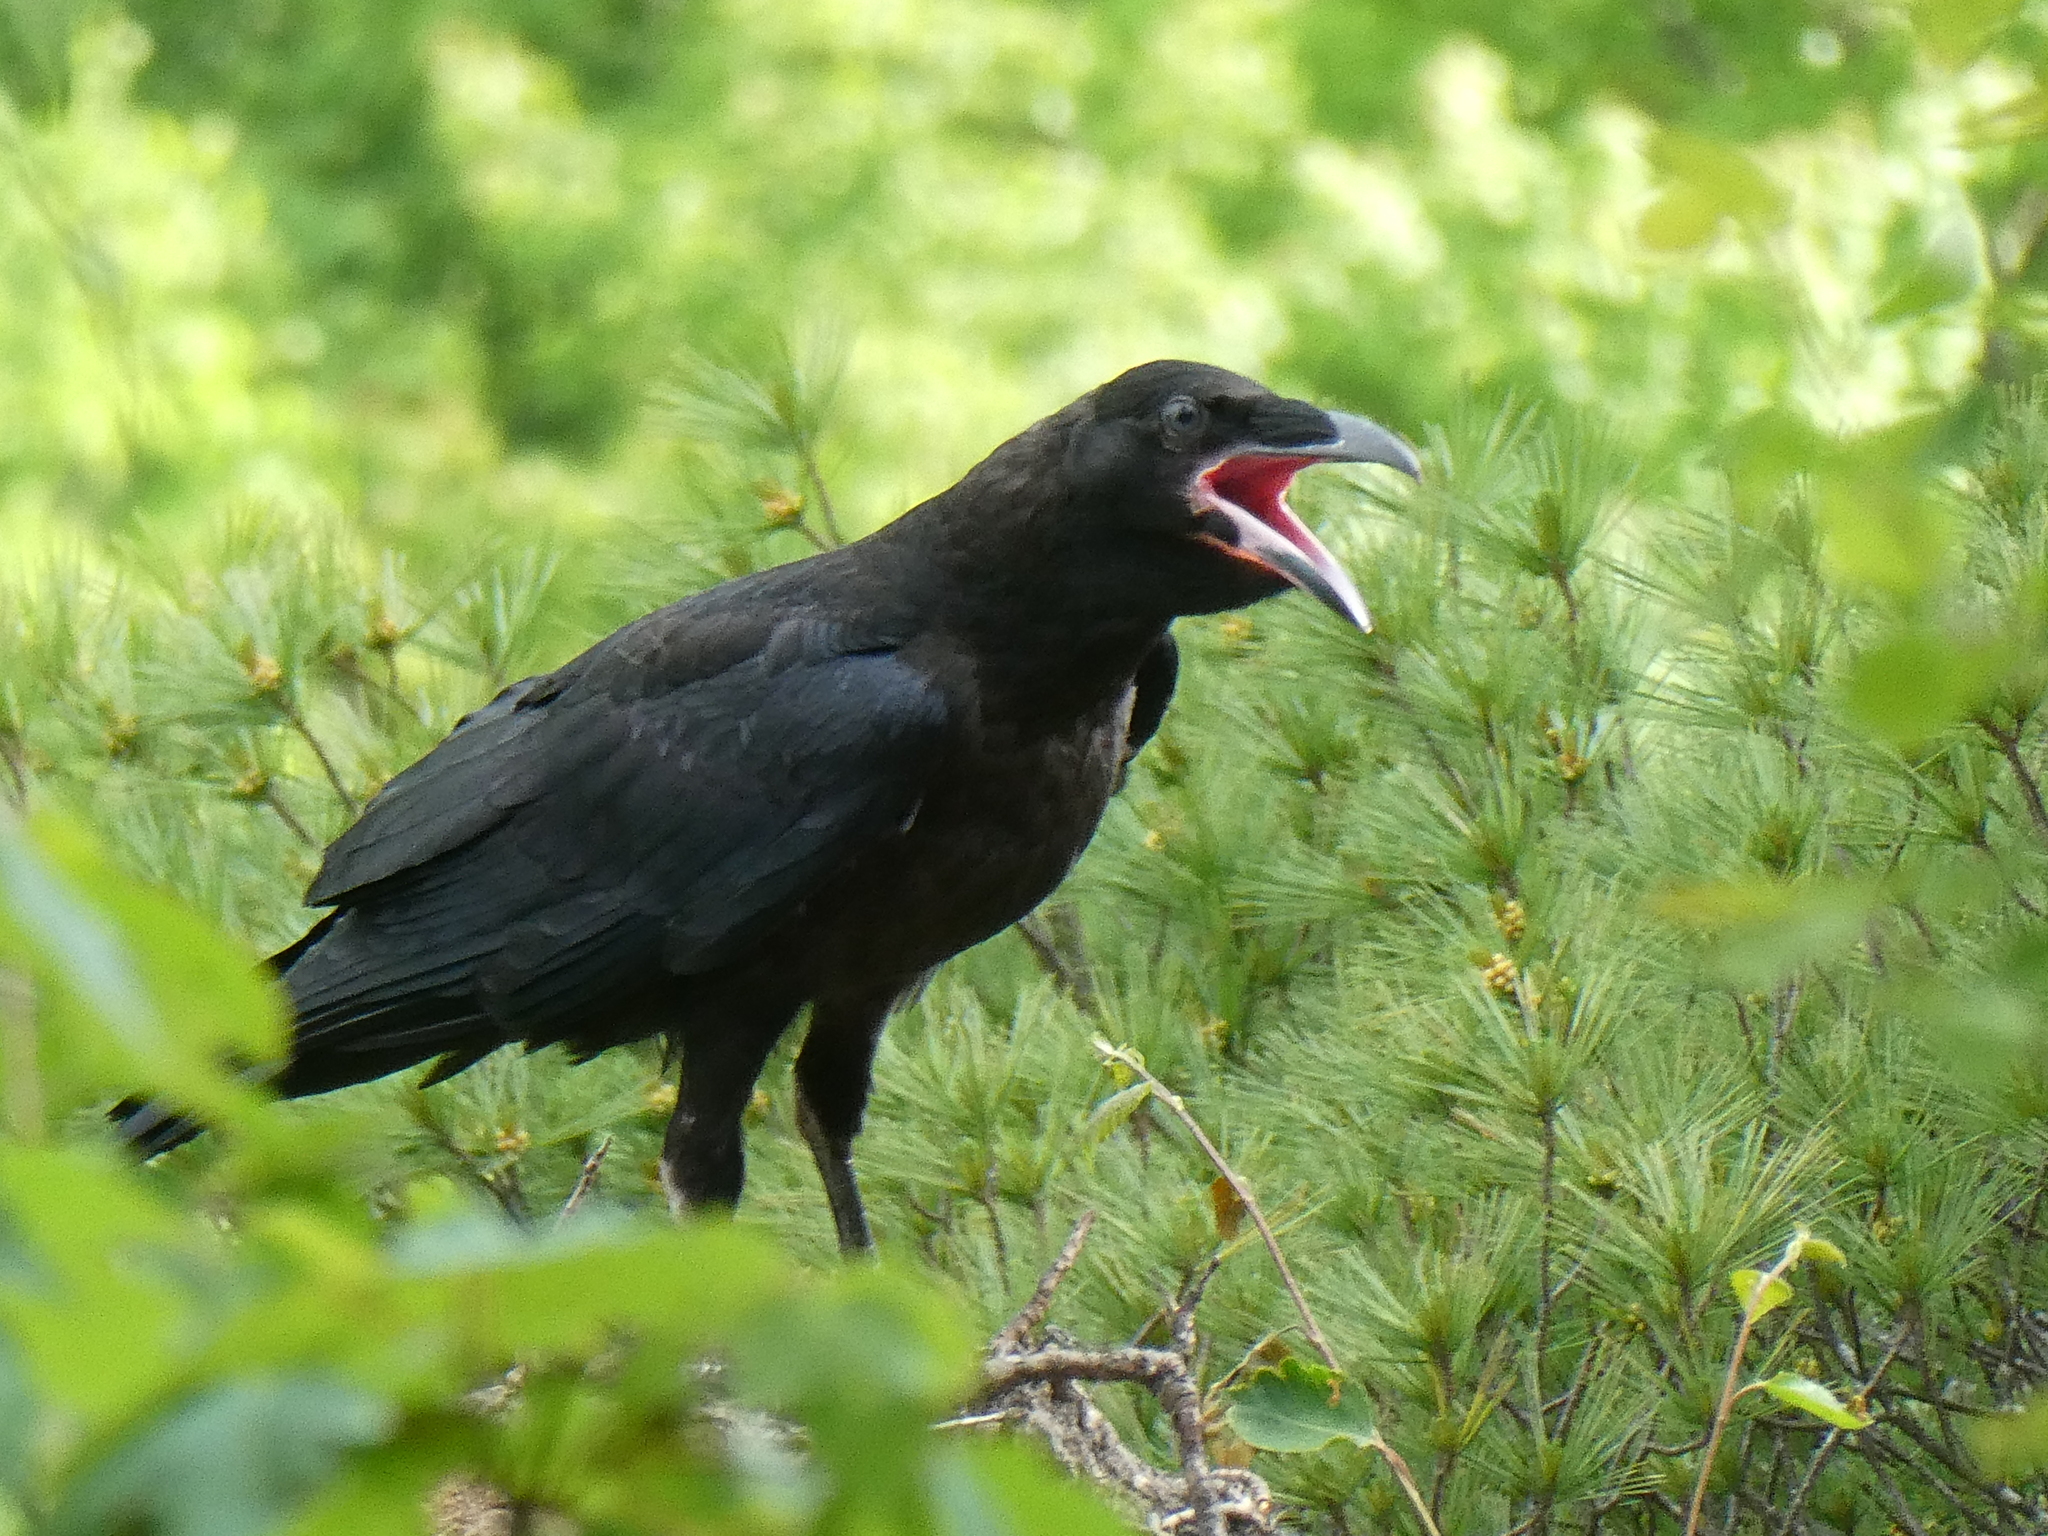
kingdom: Animalia
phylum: Chordata
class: Aves
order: Passeriformes
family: Corvidae
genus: Corvus
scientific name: Corvus corax
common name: Common raven
